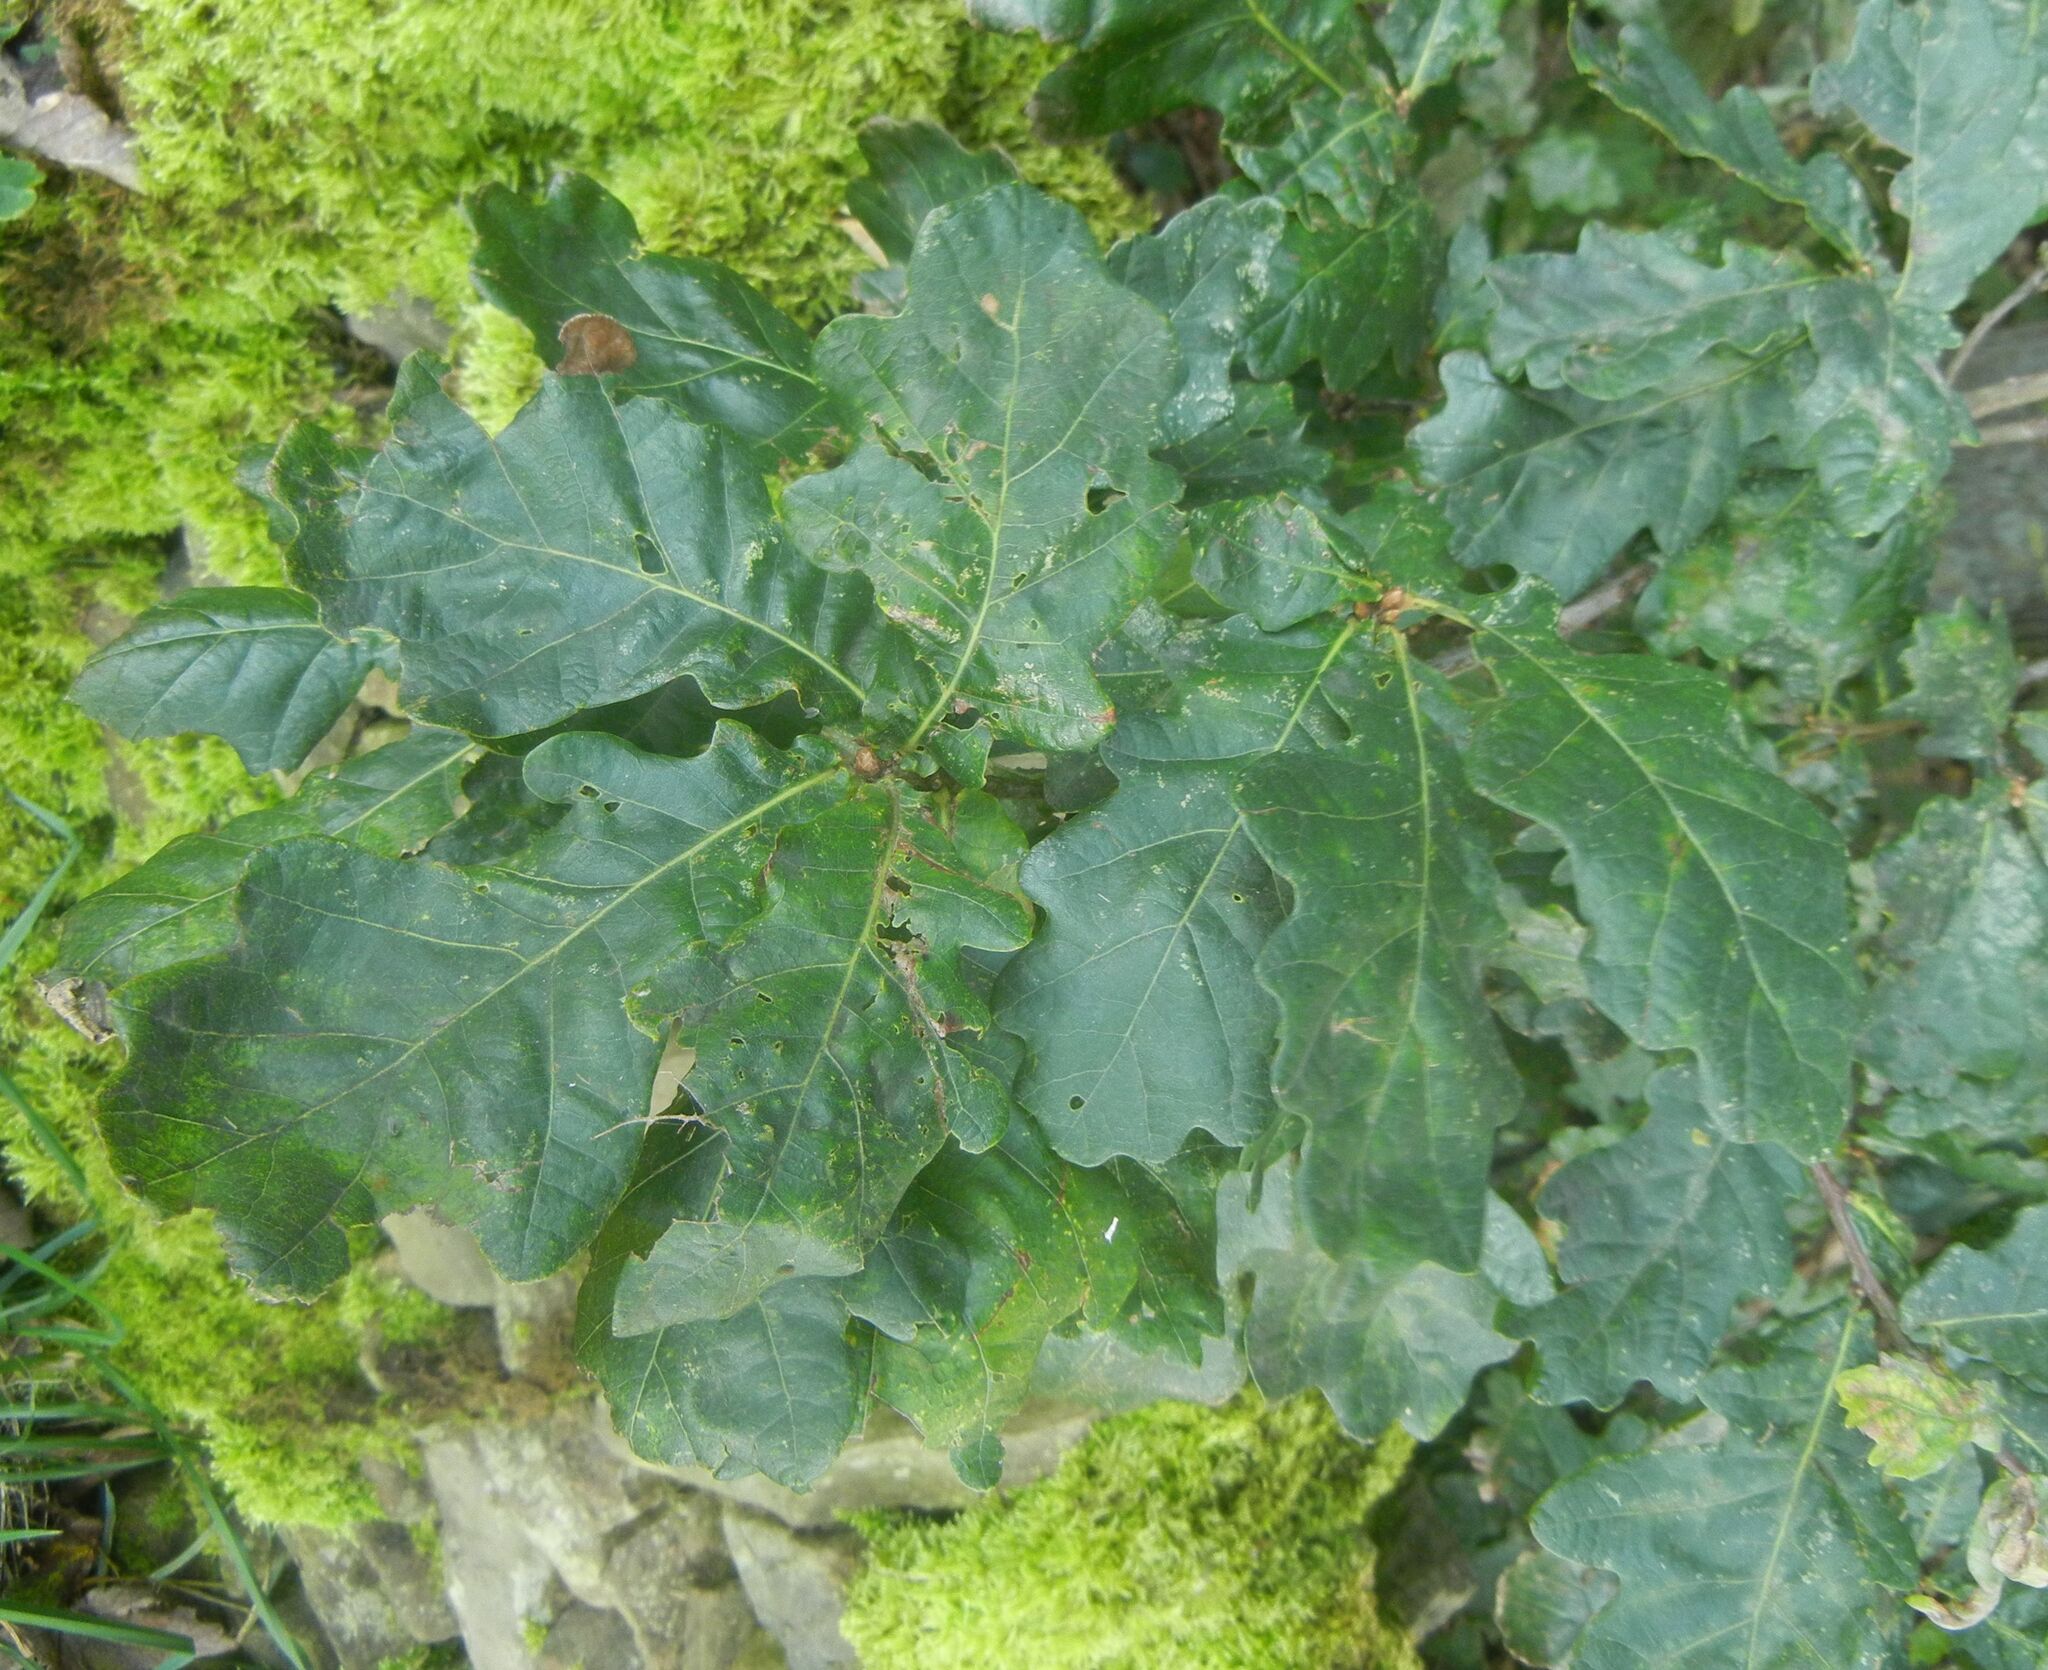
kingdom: Plantae
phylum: Tracheophyta
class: Magnoliopsida
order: Fagales
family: Fagaceae
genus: Quercus
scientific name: Quercus robur
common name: Pedunculate oak
